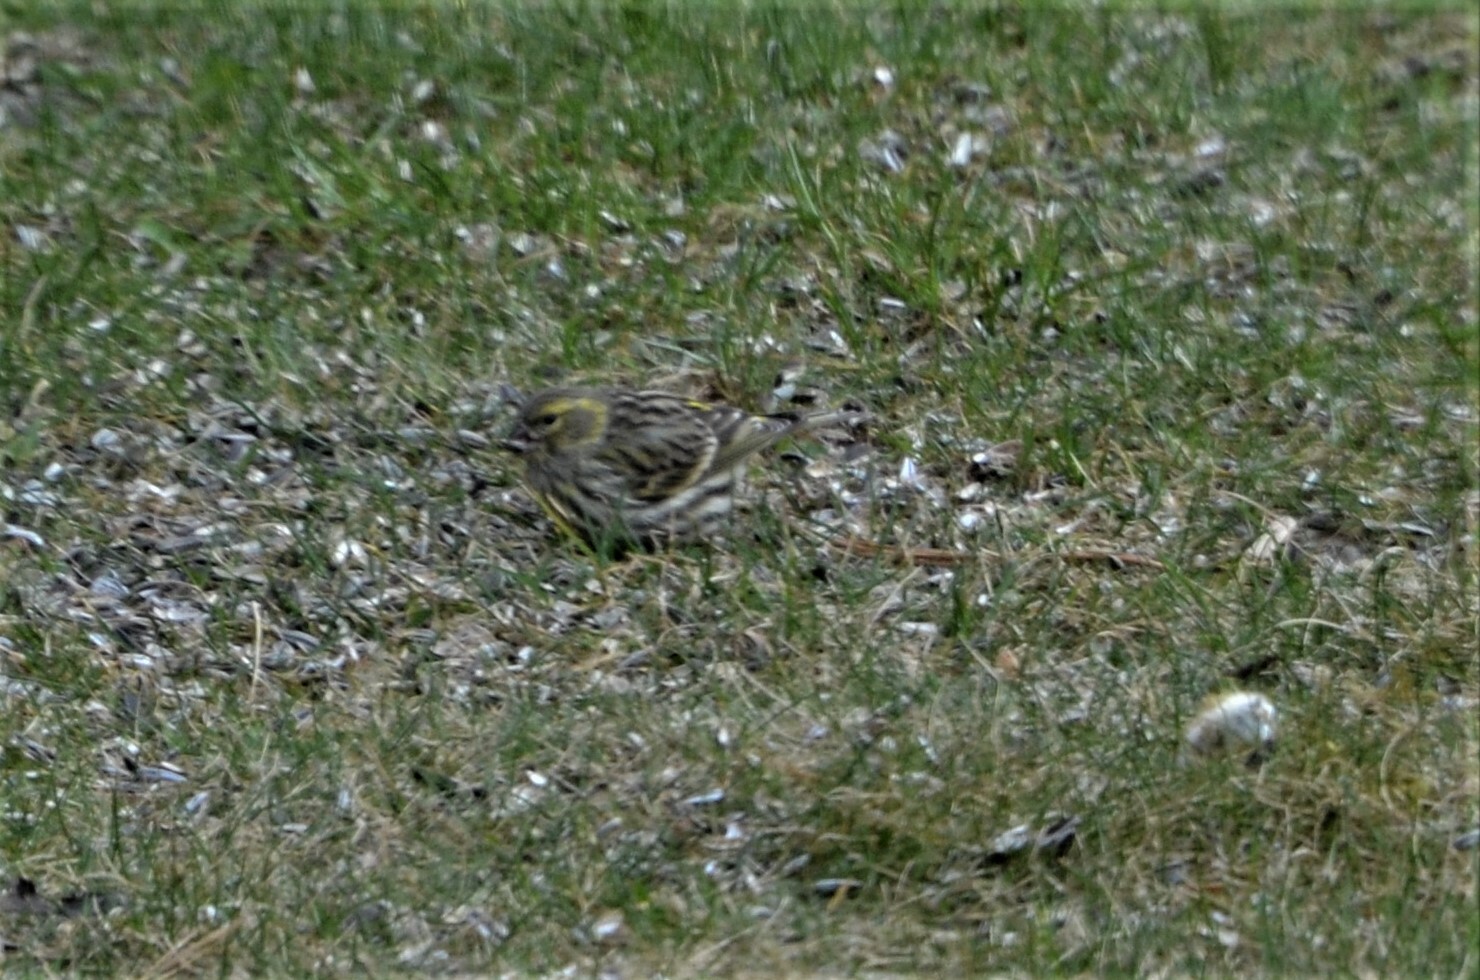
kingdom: Animalia
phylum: Chordata
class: Aves
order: Passeriformes
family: Fringillidae
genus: Serinus
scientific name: Serinus serinus
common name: European serin
